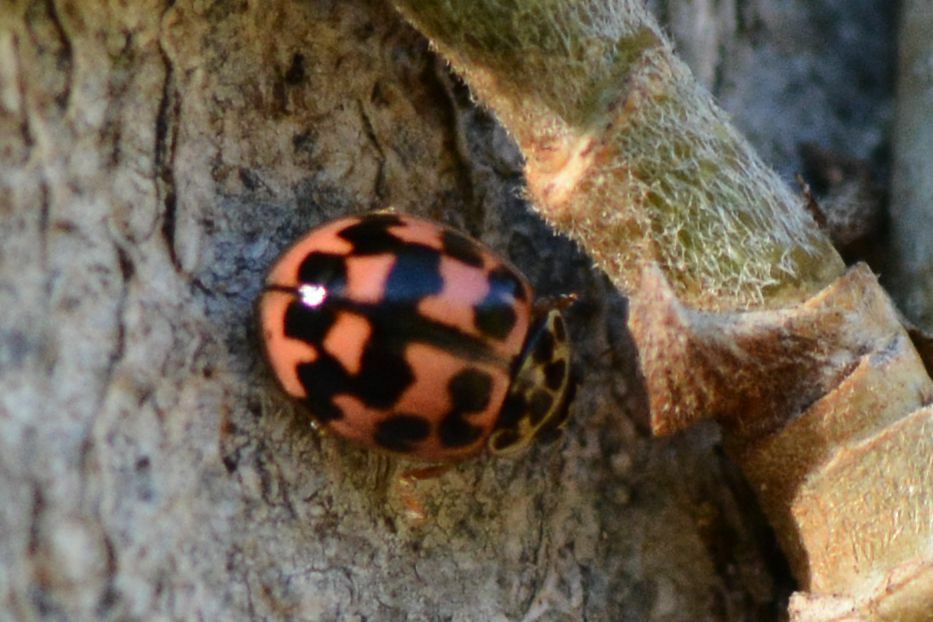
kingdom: Animalia
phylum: Arthropoda
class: Insecta
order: Coleoptera
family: Coccinellidae
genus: Oenopia
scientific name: Oenopia conglobata
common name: Ladybird beetle
